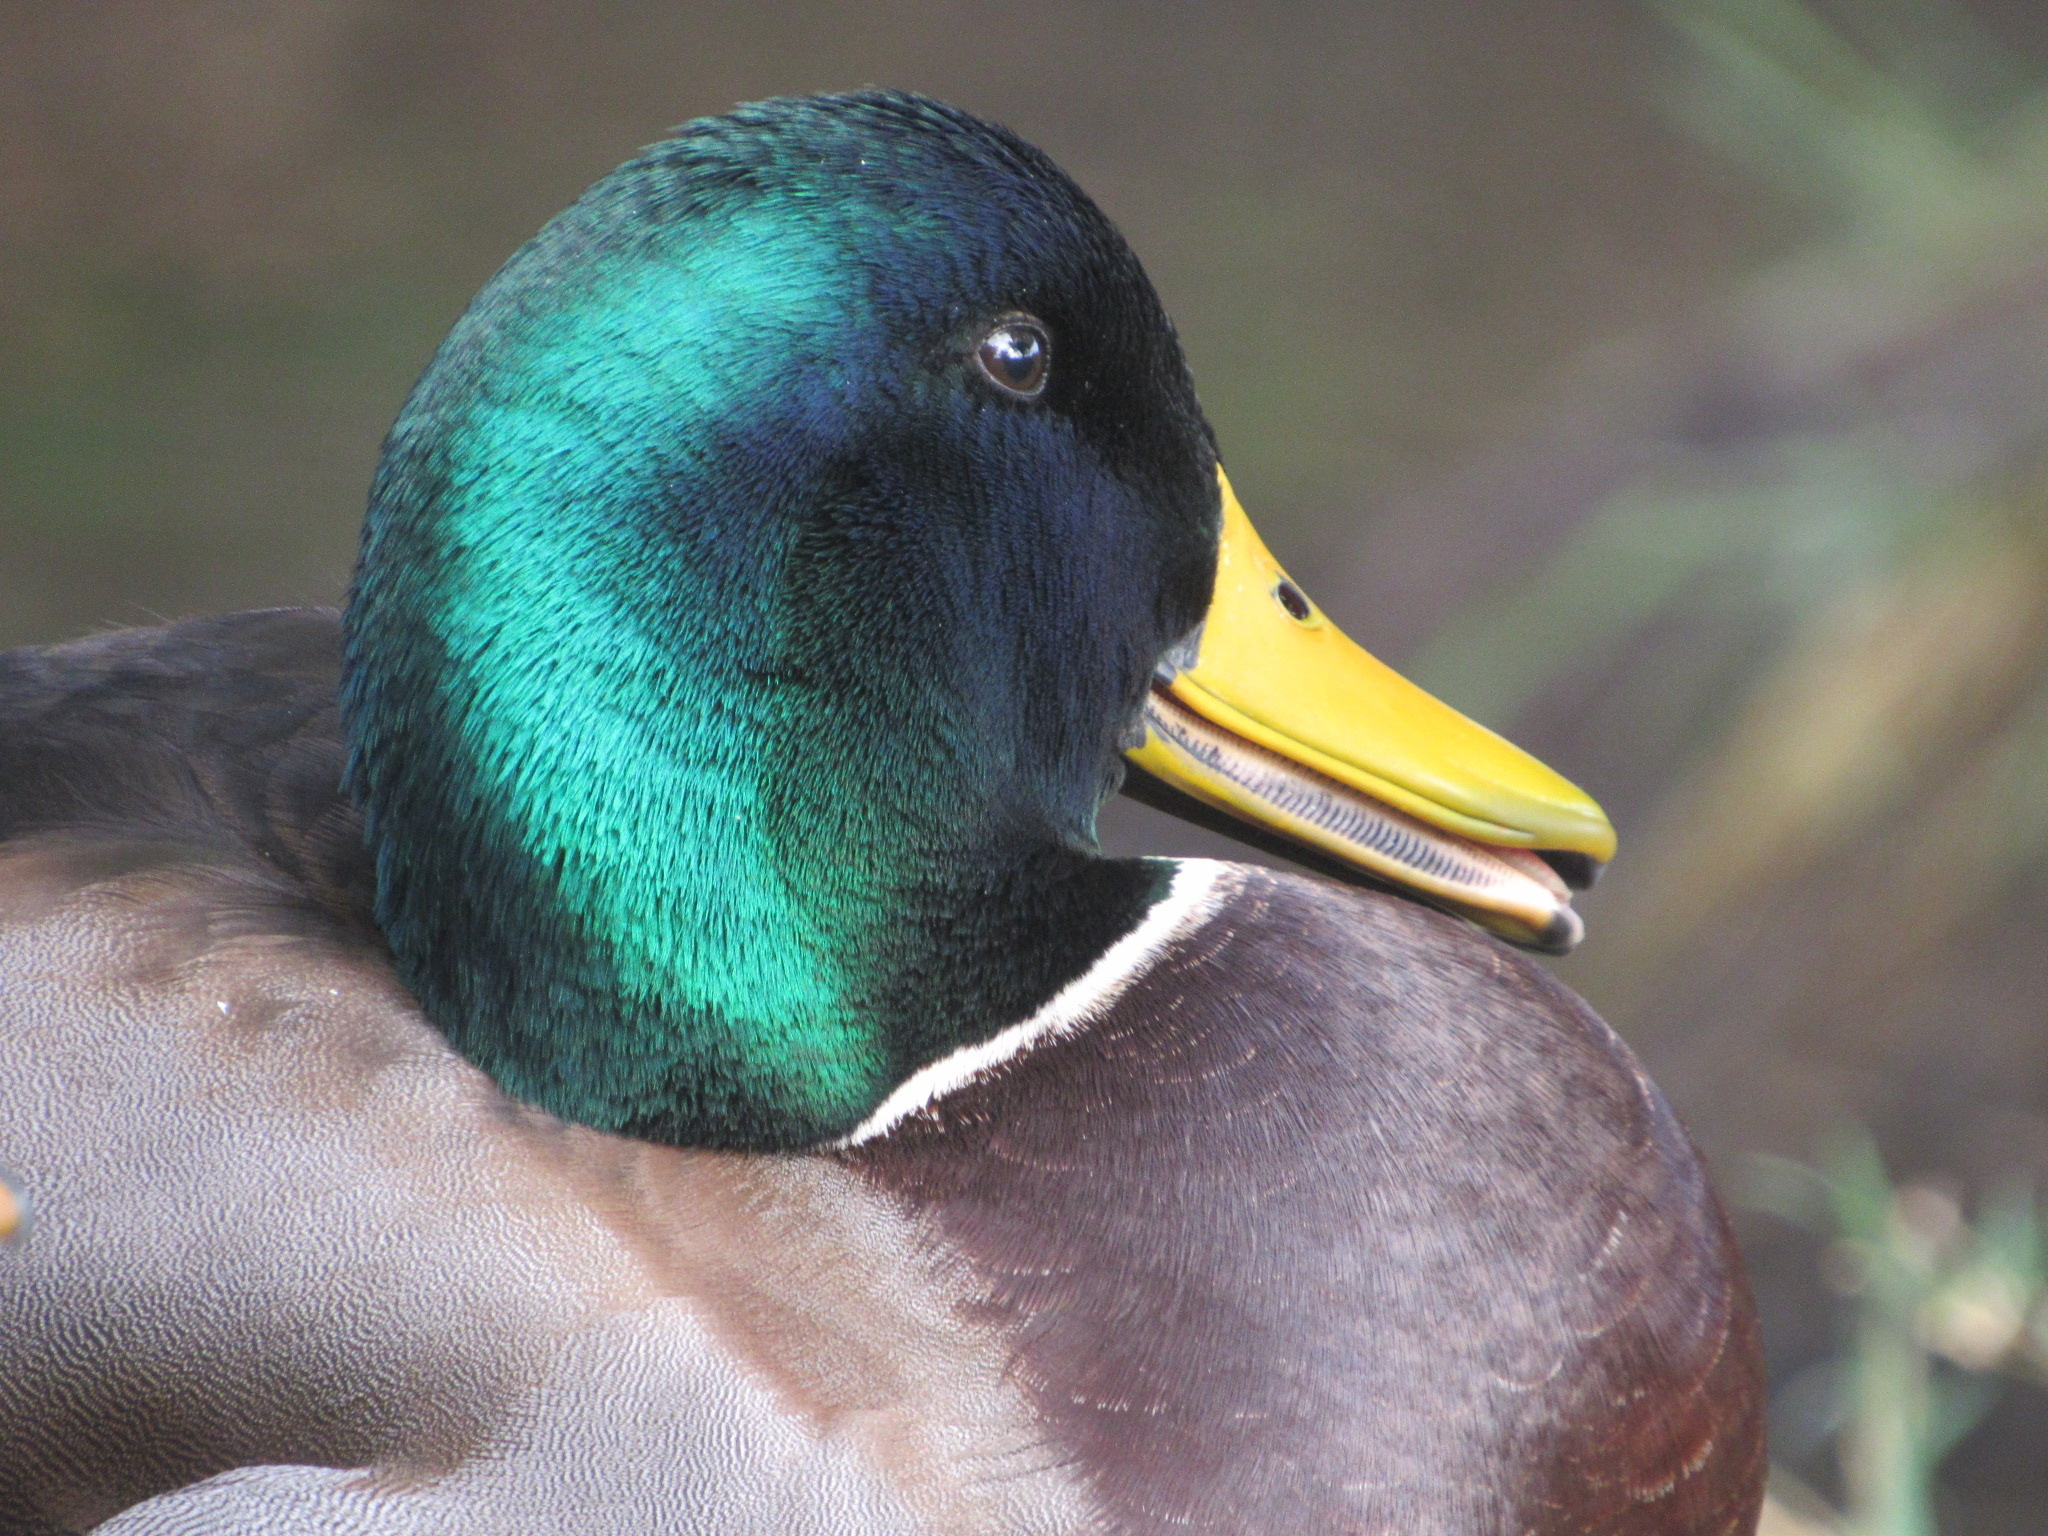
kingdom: Animalia
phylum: Chordata
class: Aves
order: Anseriformes
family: Anatidae
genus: Anas
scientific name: Anas platyrhynchos
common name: Mallard
